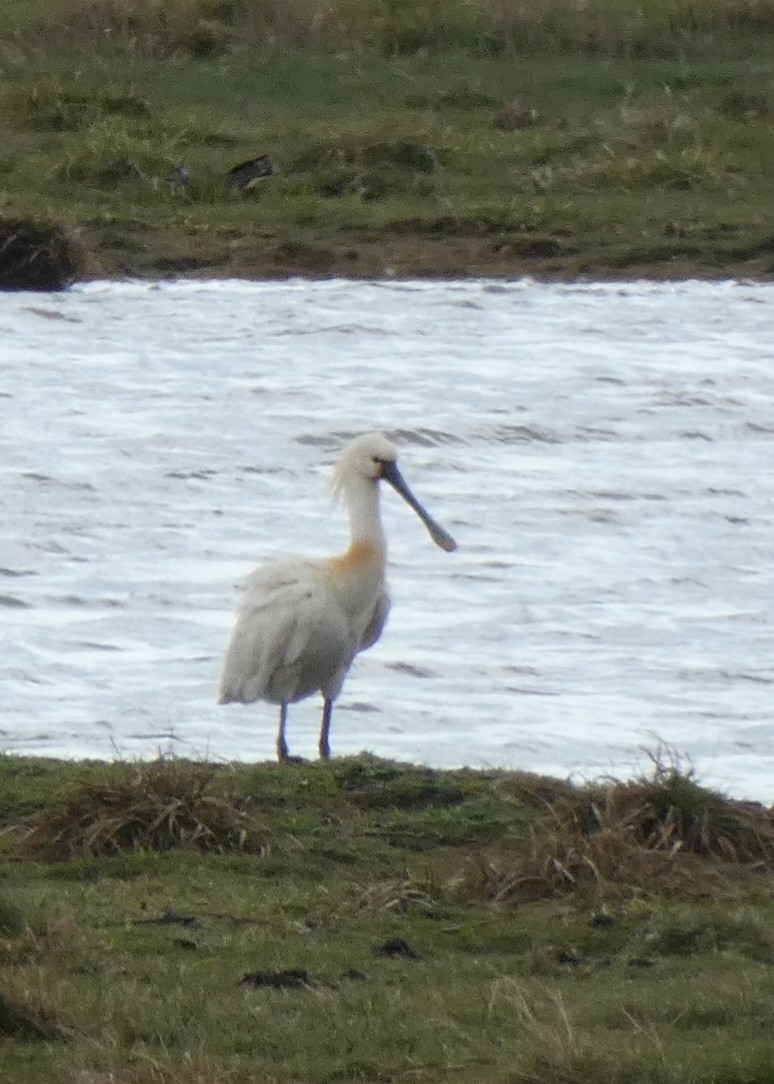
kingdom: Animalia
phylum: Chordata
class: Aves
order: Pelecaniformes
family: Threskiornithidae
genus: Platalea
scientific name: Platalea leucorodia
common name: Eurasian spoonbill
